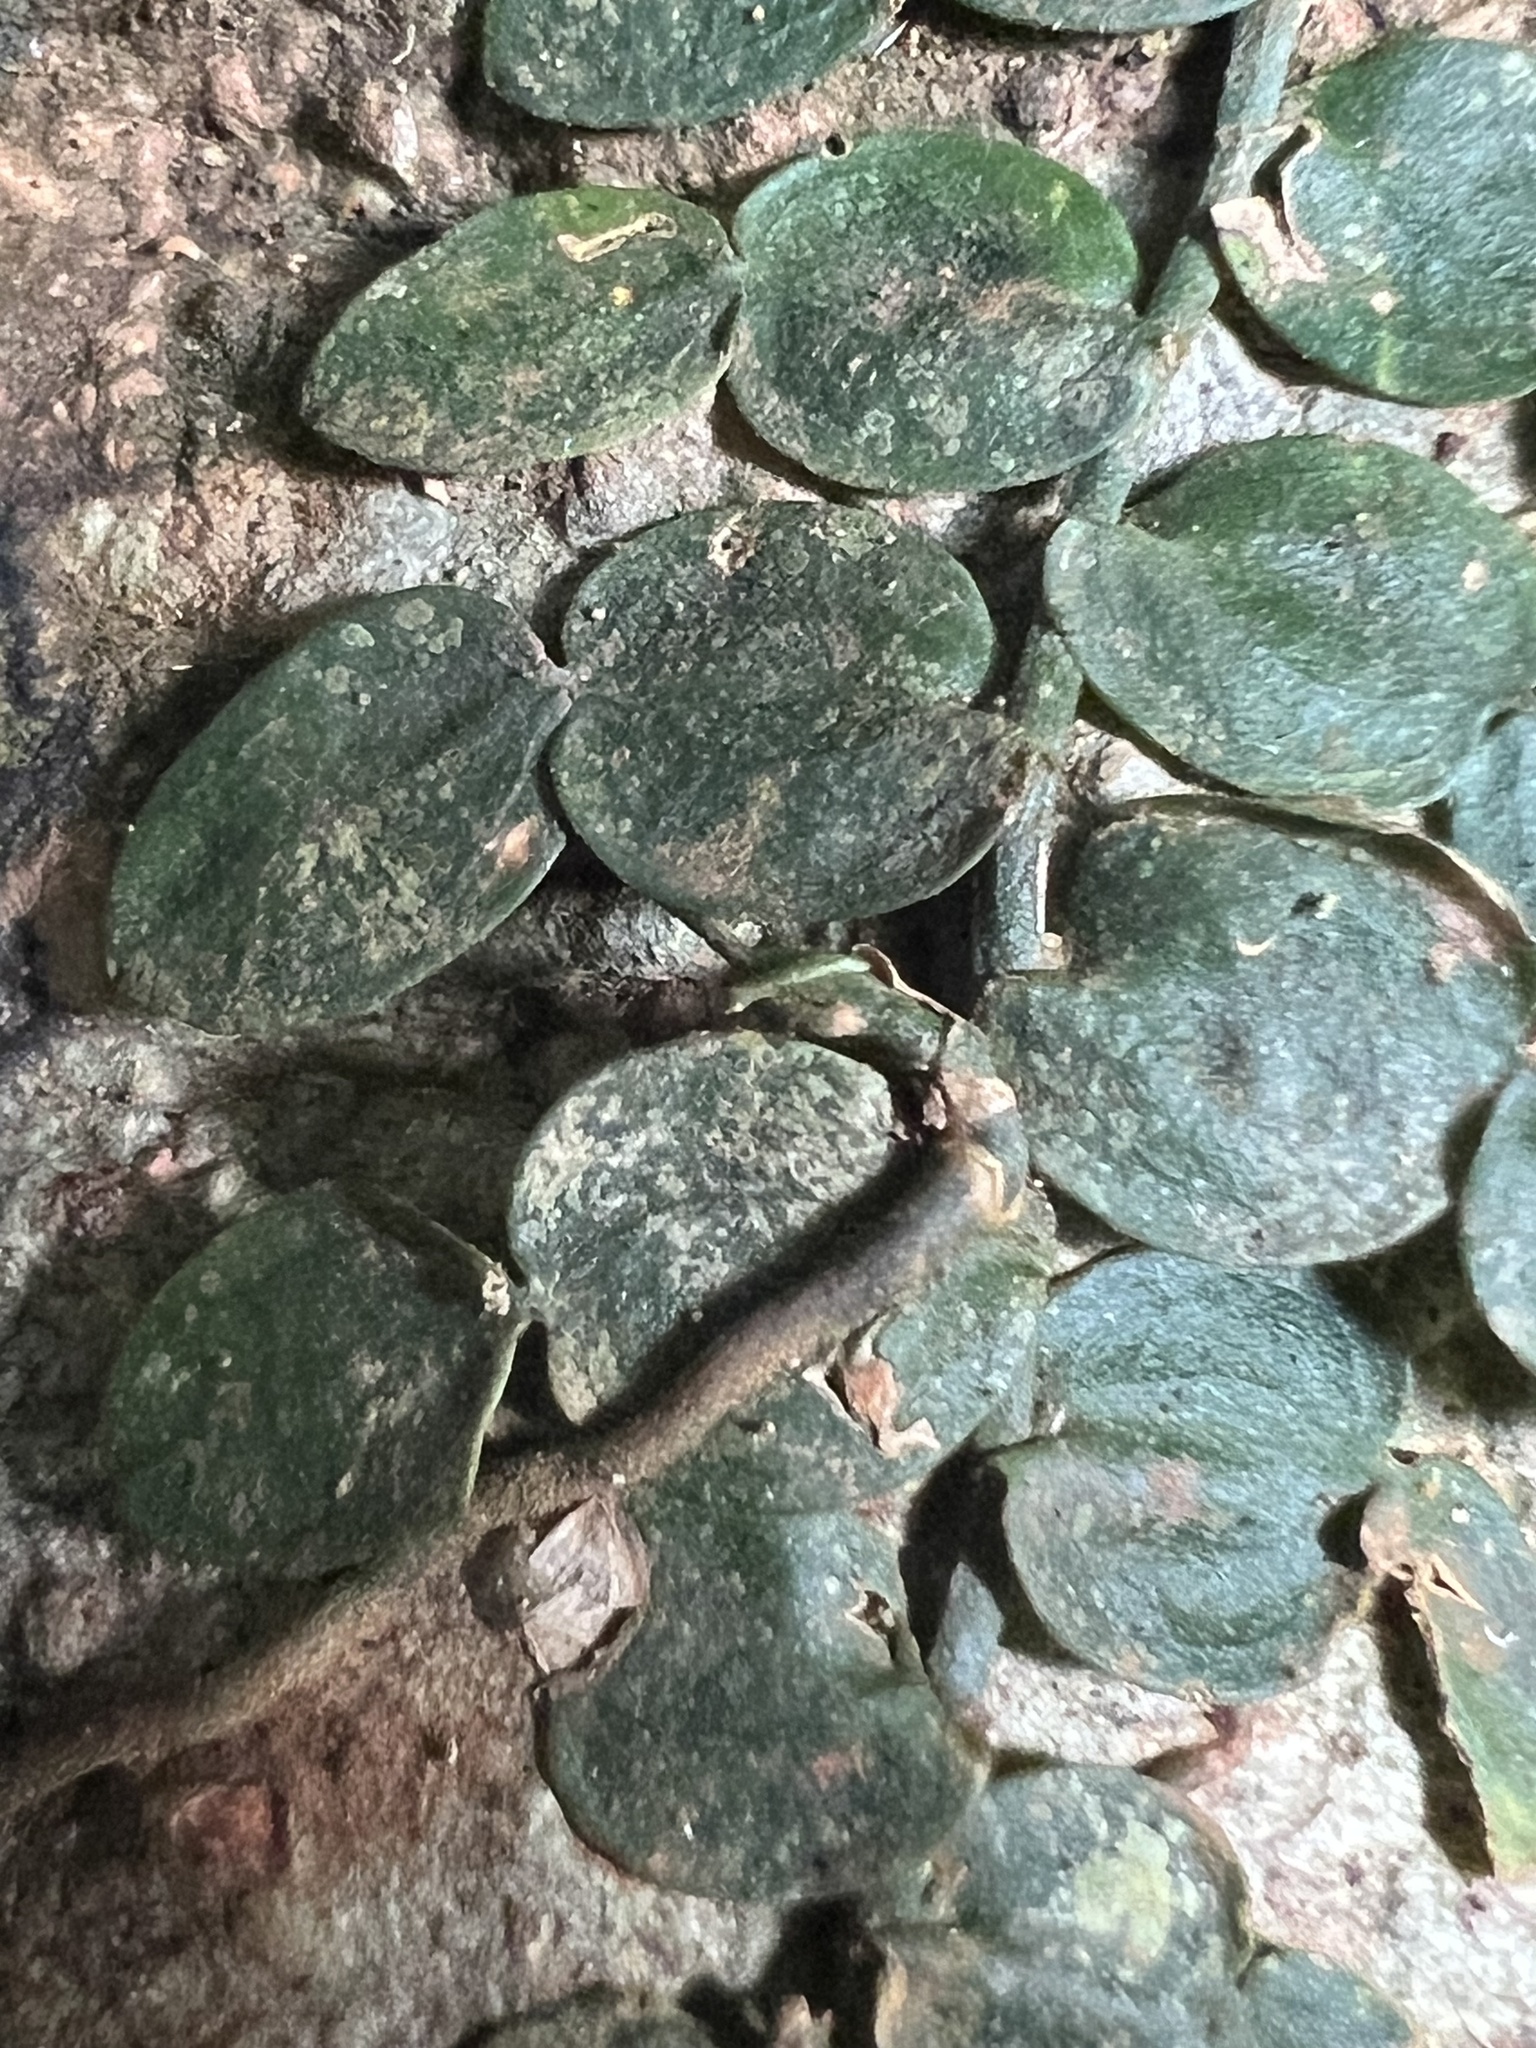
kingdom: Plantae
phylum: Tracheophyta
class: Liliopsida
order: Alismatales
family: Araceae
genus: Pothos
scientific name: Pothos longipes
